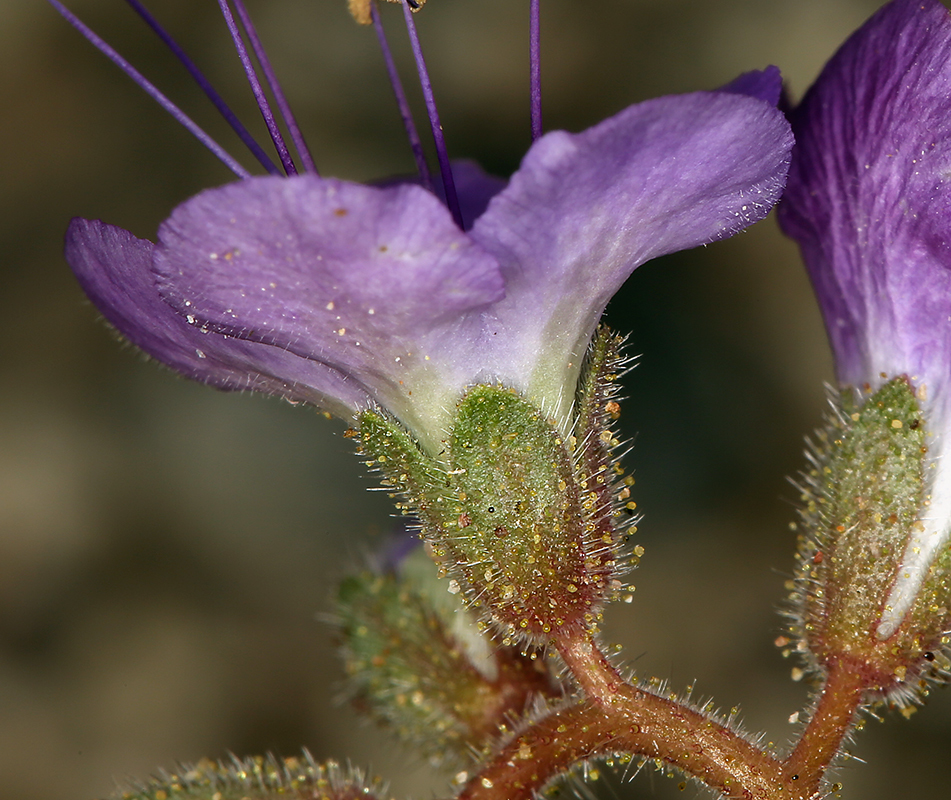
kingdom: Plantae
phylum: Tracheophyta
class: Magnoliopsida
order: Boraginales
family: Hydrophyllaceae
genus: Phacelia
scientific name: Phacelia crenulata
